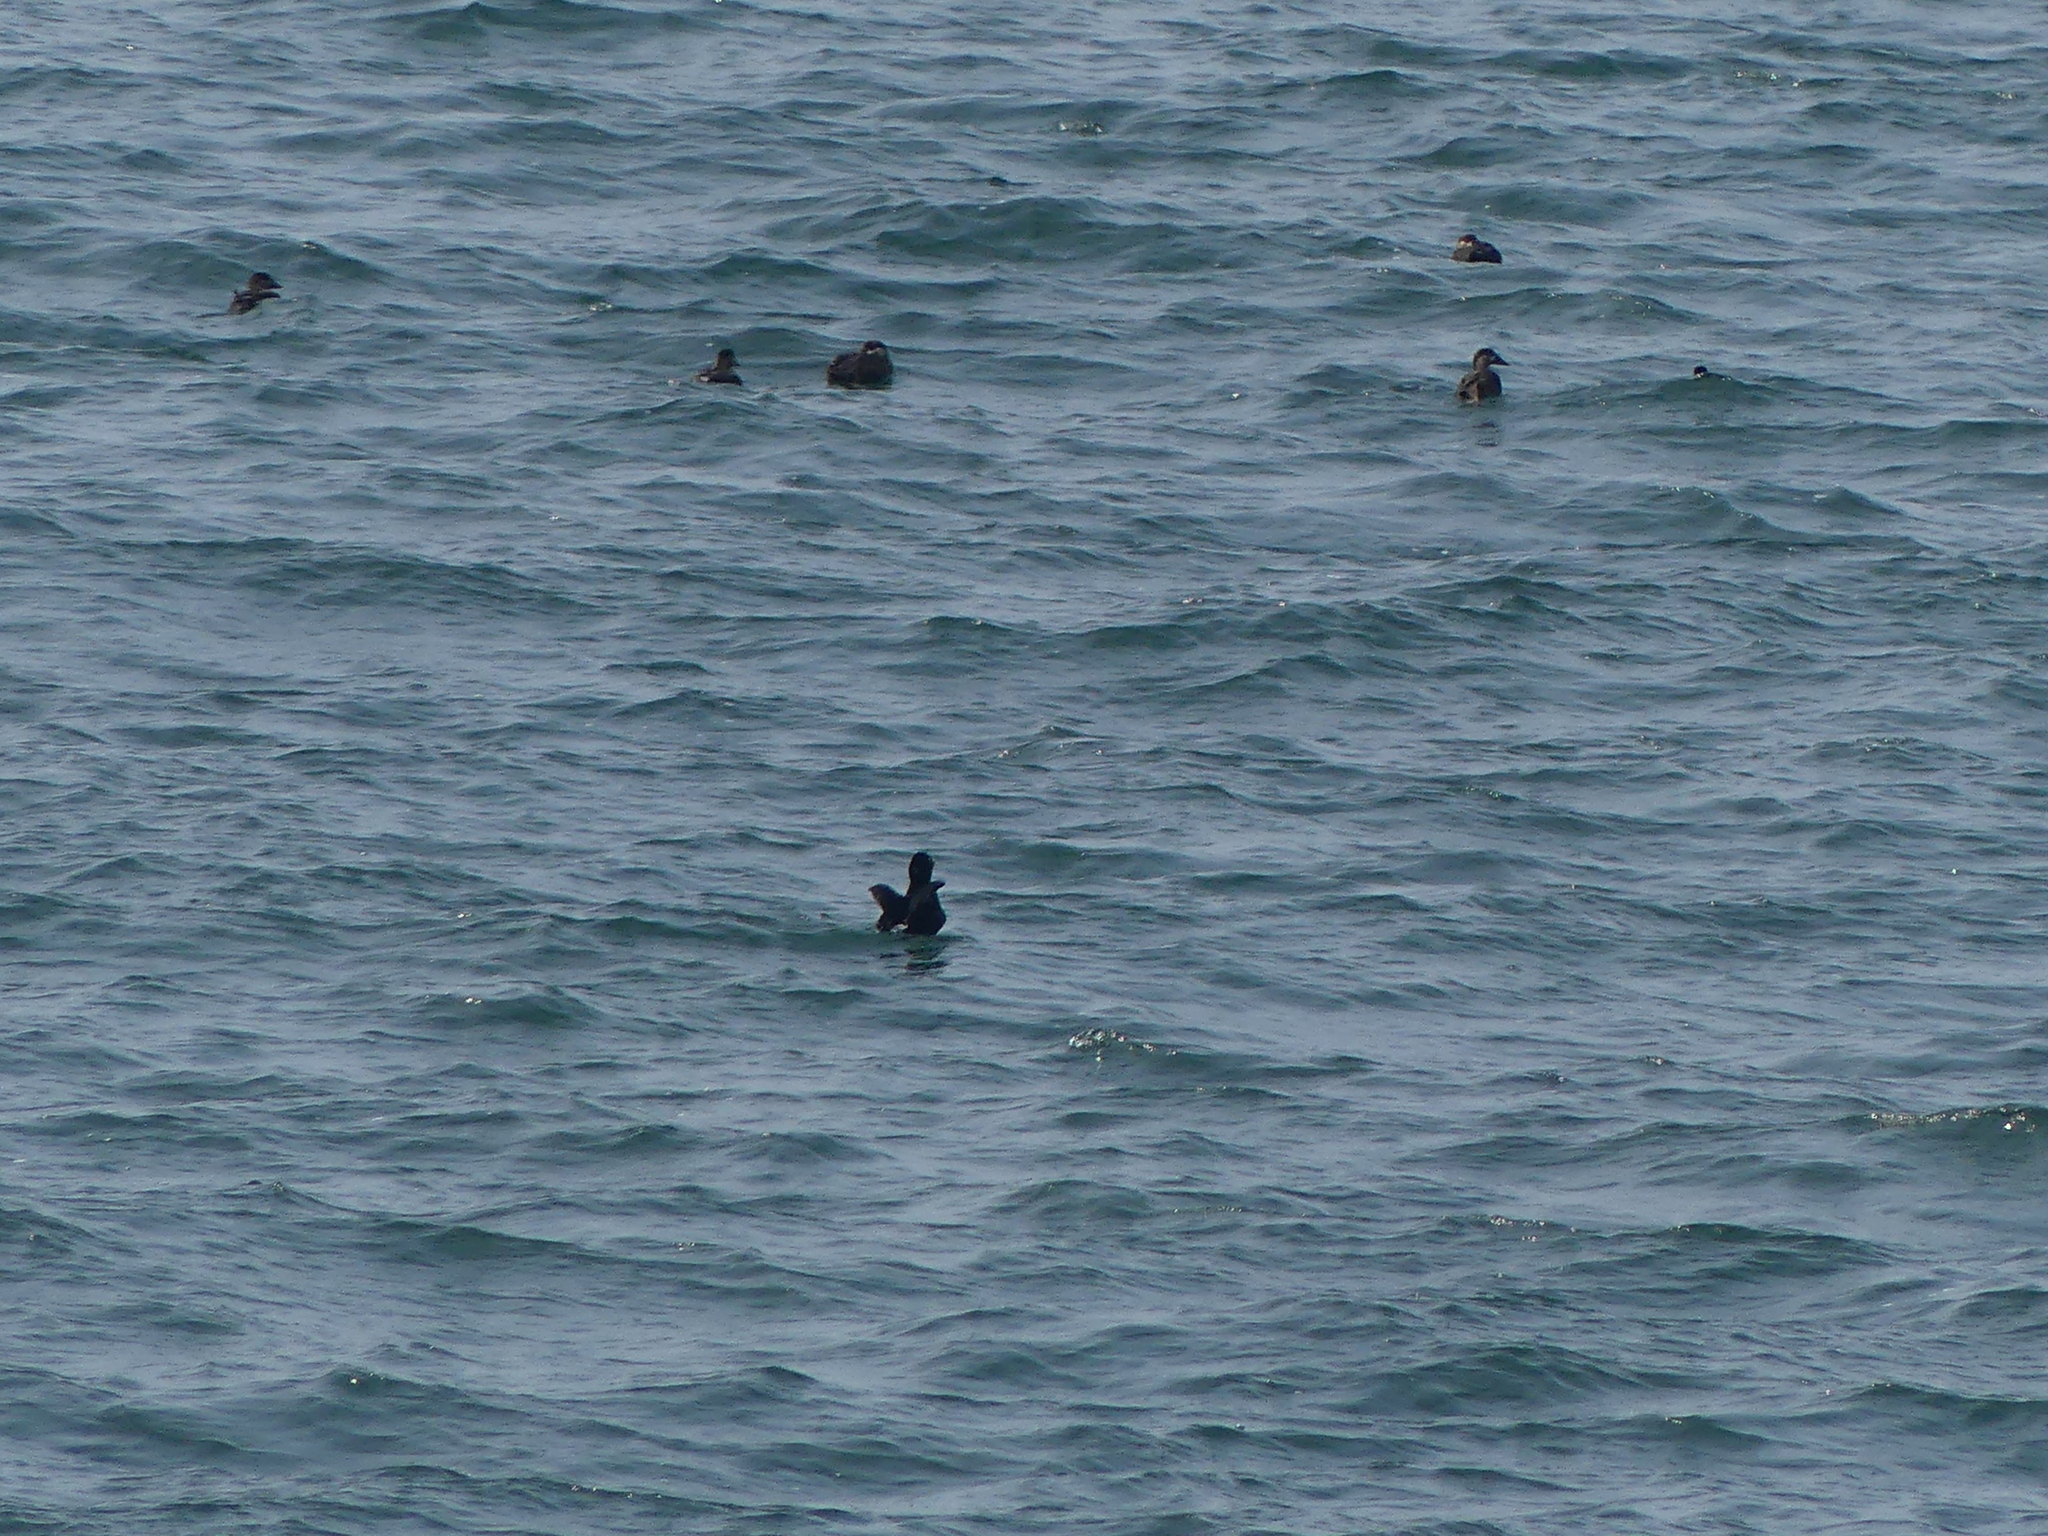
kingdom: Animalia
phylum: Chordata
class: Aves
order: Anseriformes
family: Anatidae
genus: Melanitta
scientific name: Melanitta perspicillata
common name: Surf scoter
